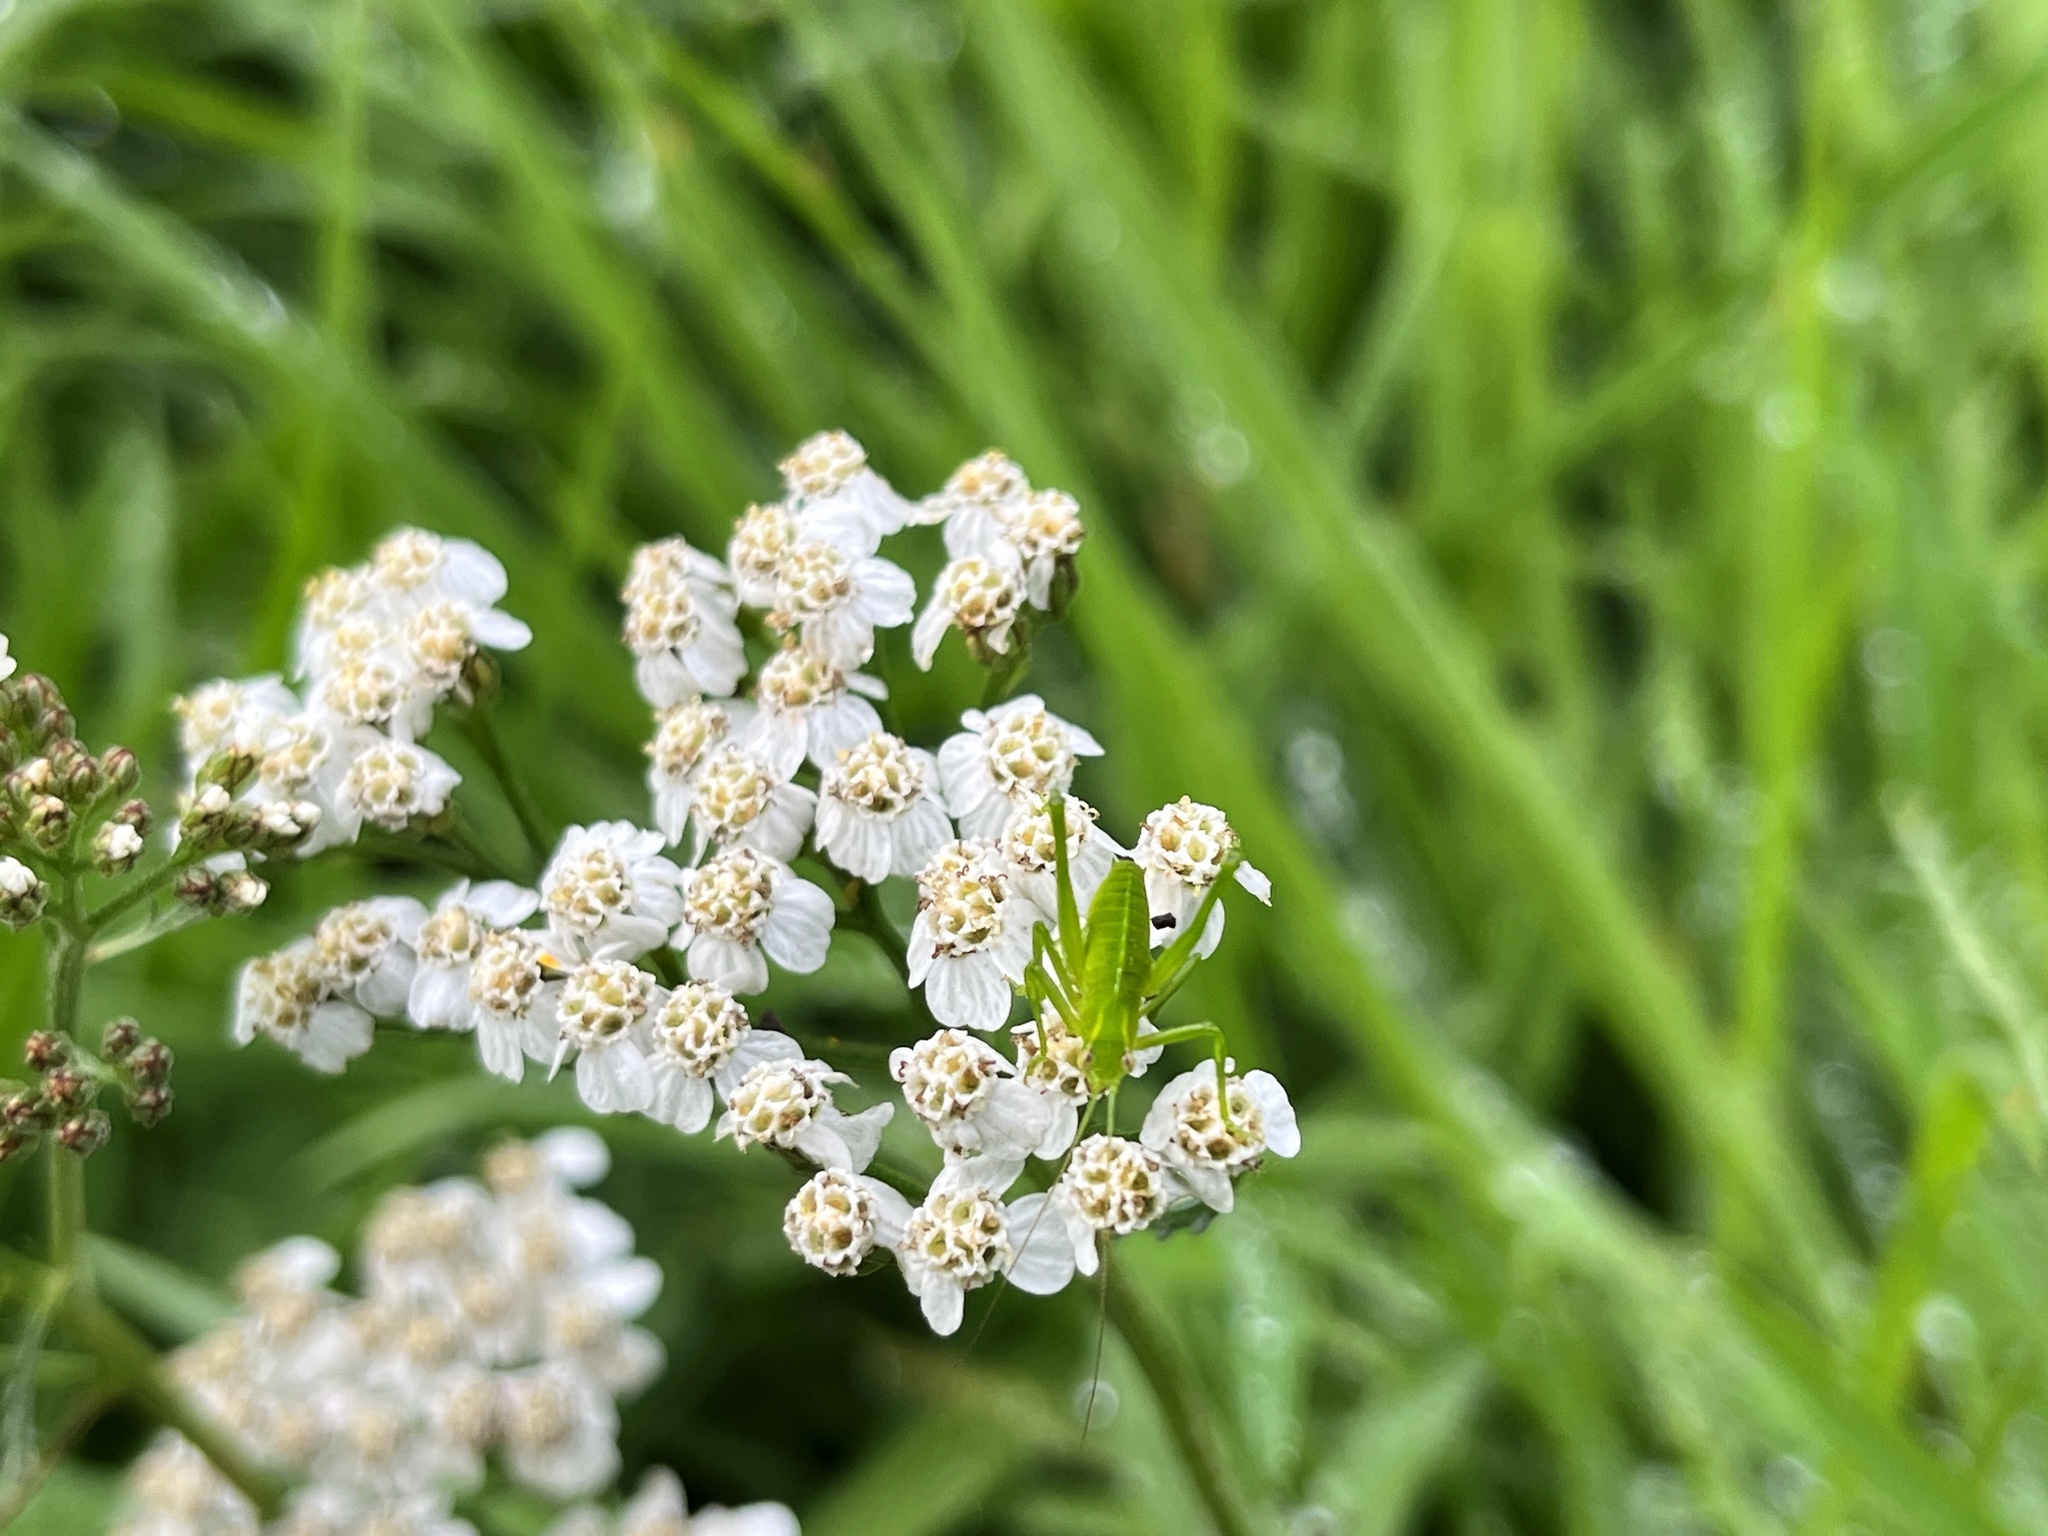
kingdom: Animalia
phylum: Arthropoda
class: Insecta
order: Orthoptera
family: Tettigoniidae
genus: Caedicia
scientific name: Caedicia simplex
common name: Common garden katydid
